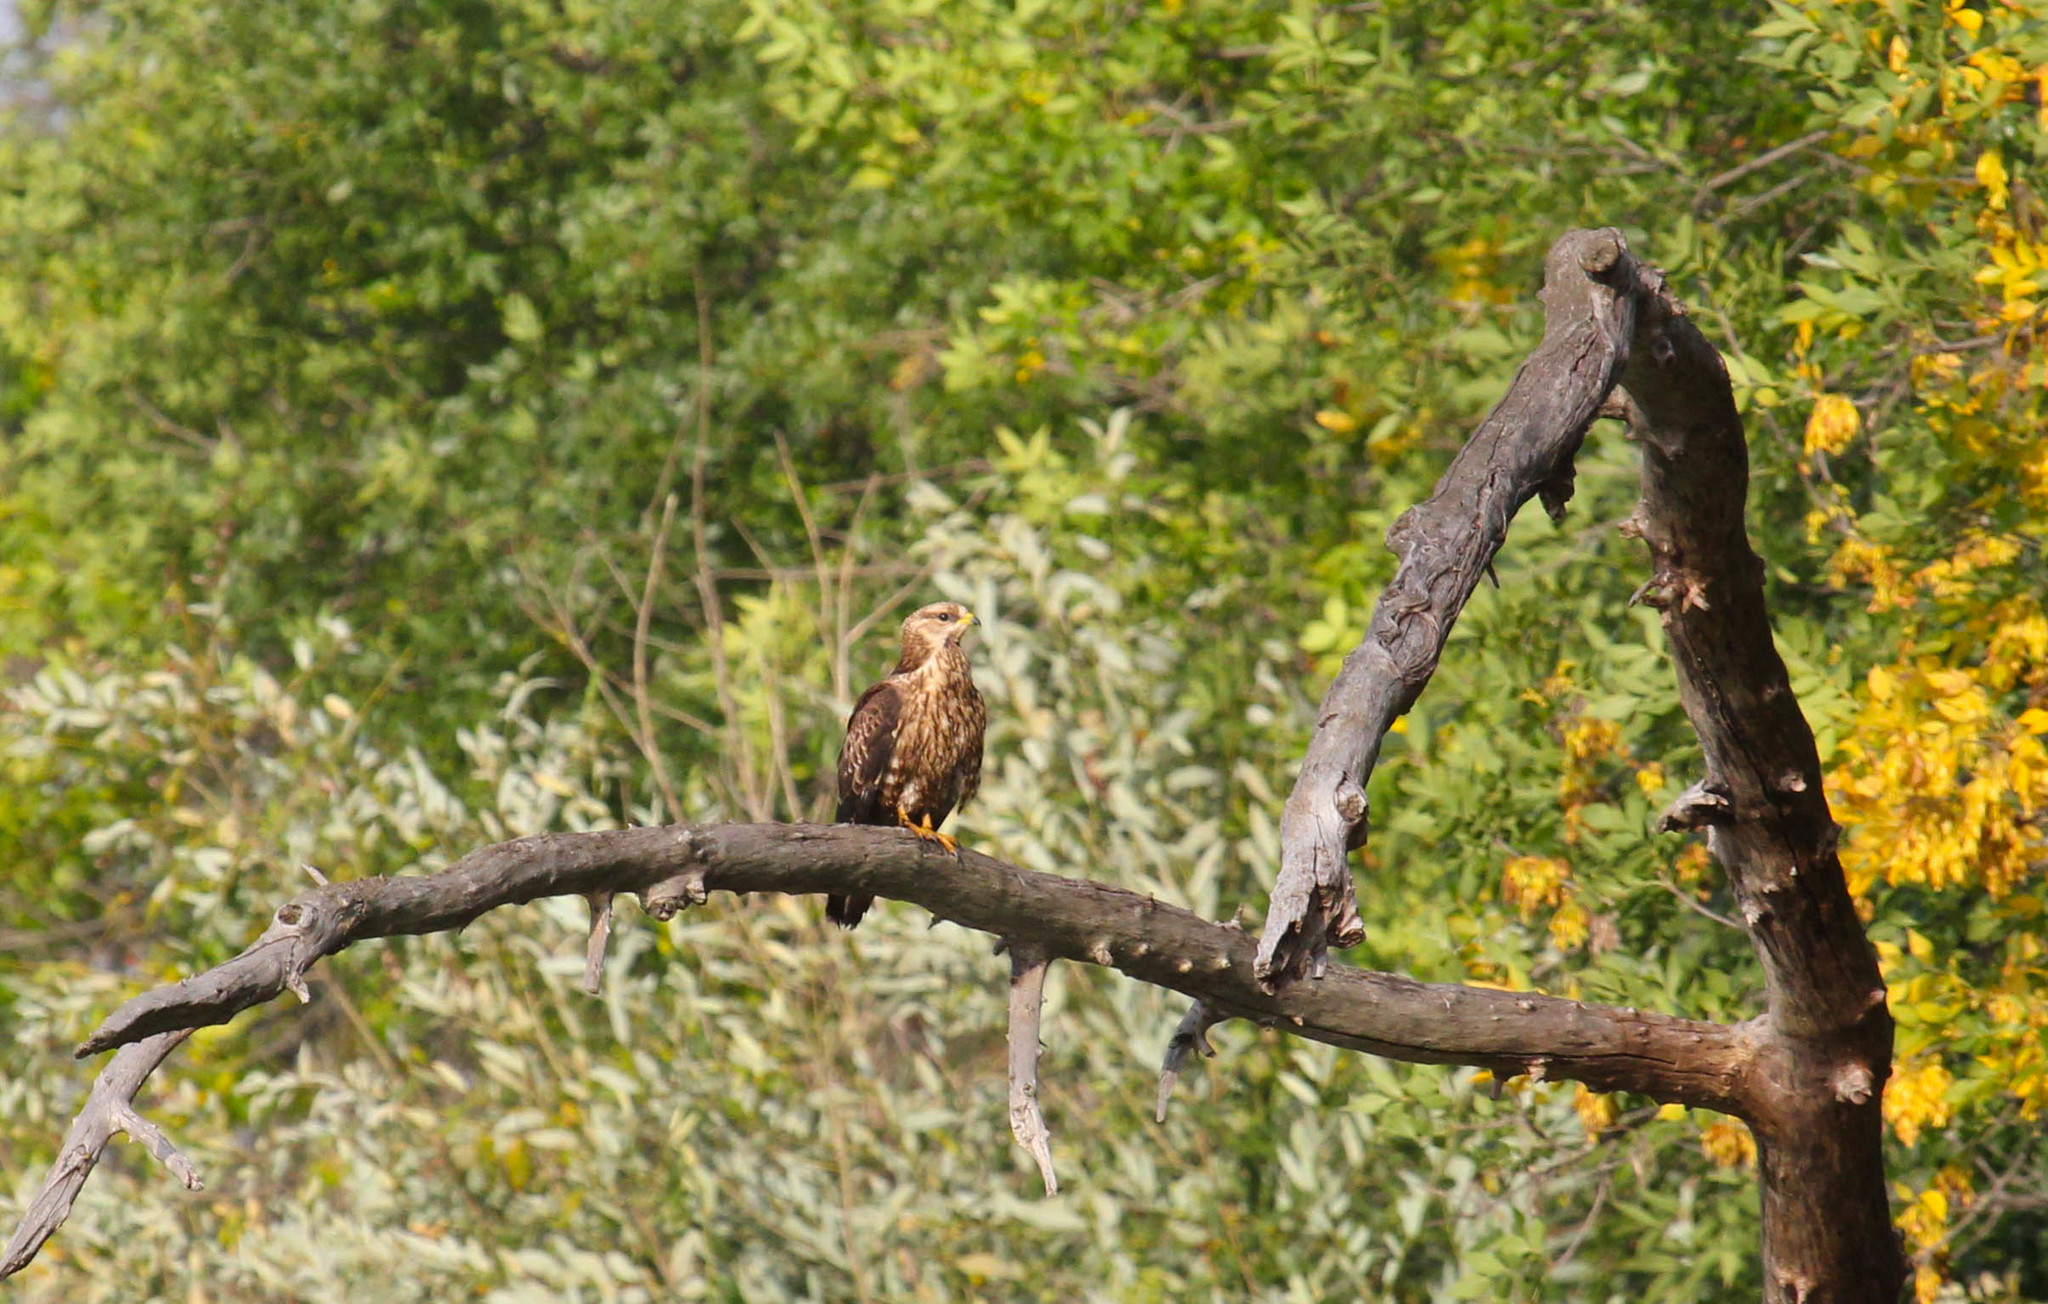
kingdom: Animalia
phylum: Chordata
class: Aves
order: Accipitriformes
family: Accipitridae
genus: Pernis
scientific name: Pernis apivorus
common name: European honey buzzard
